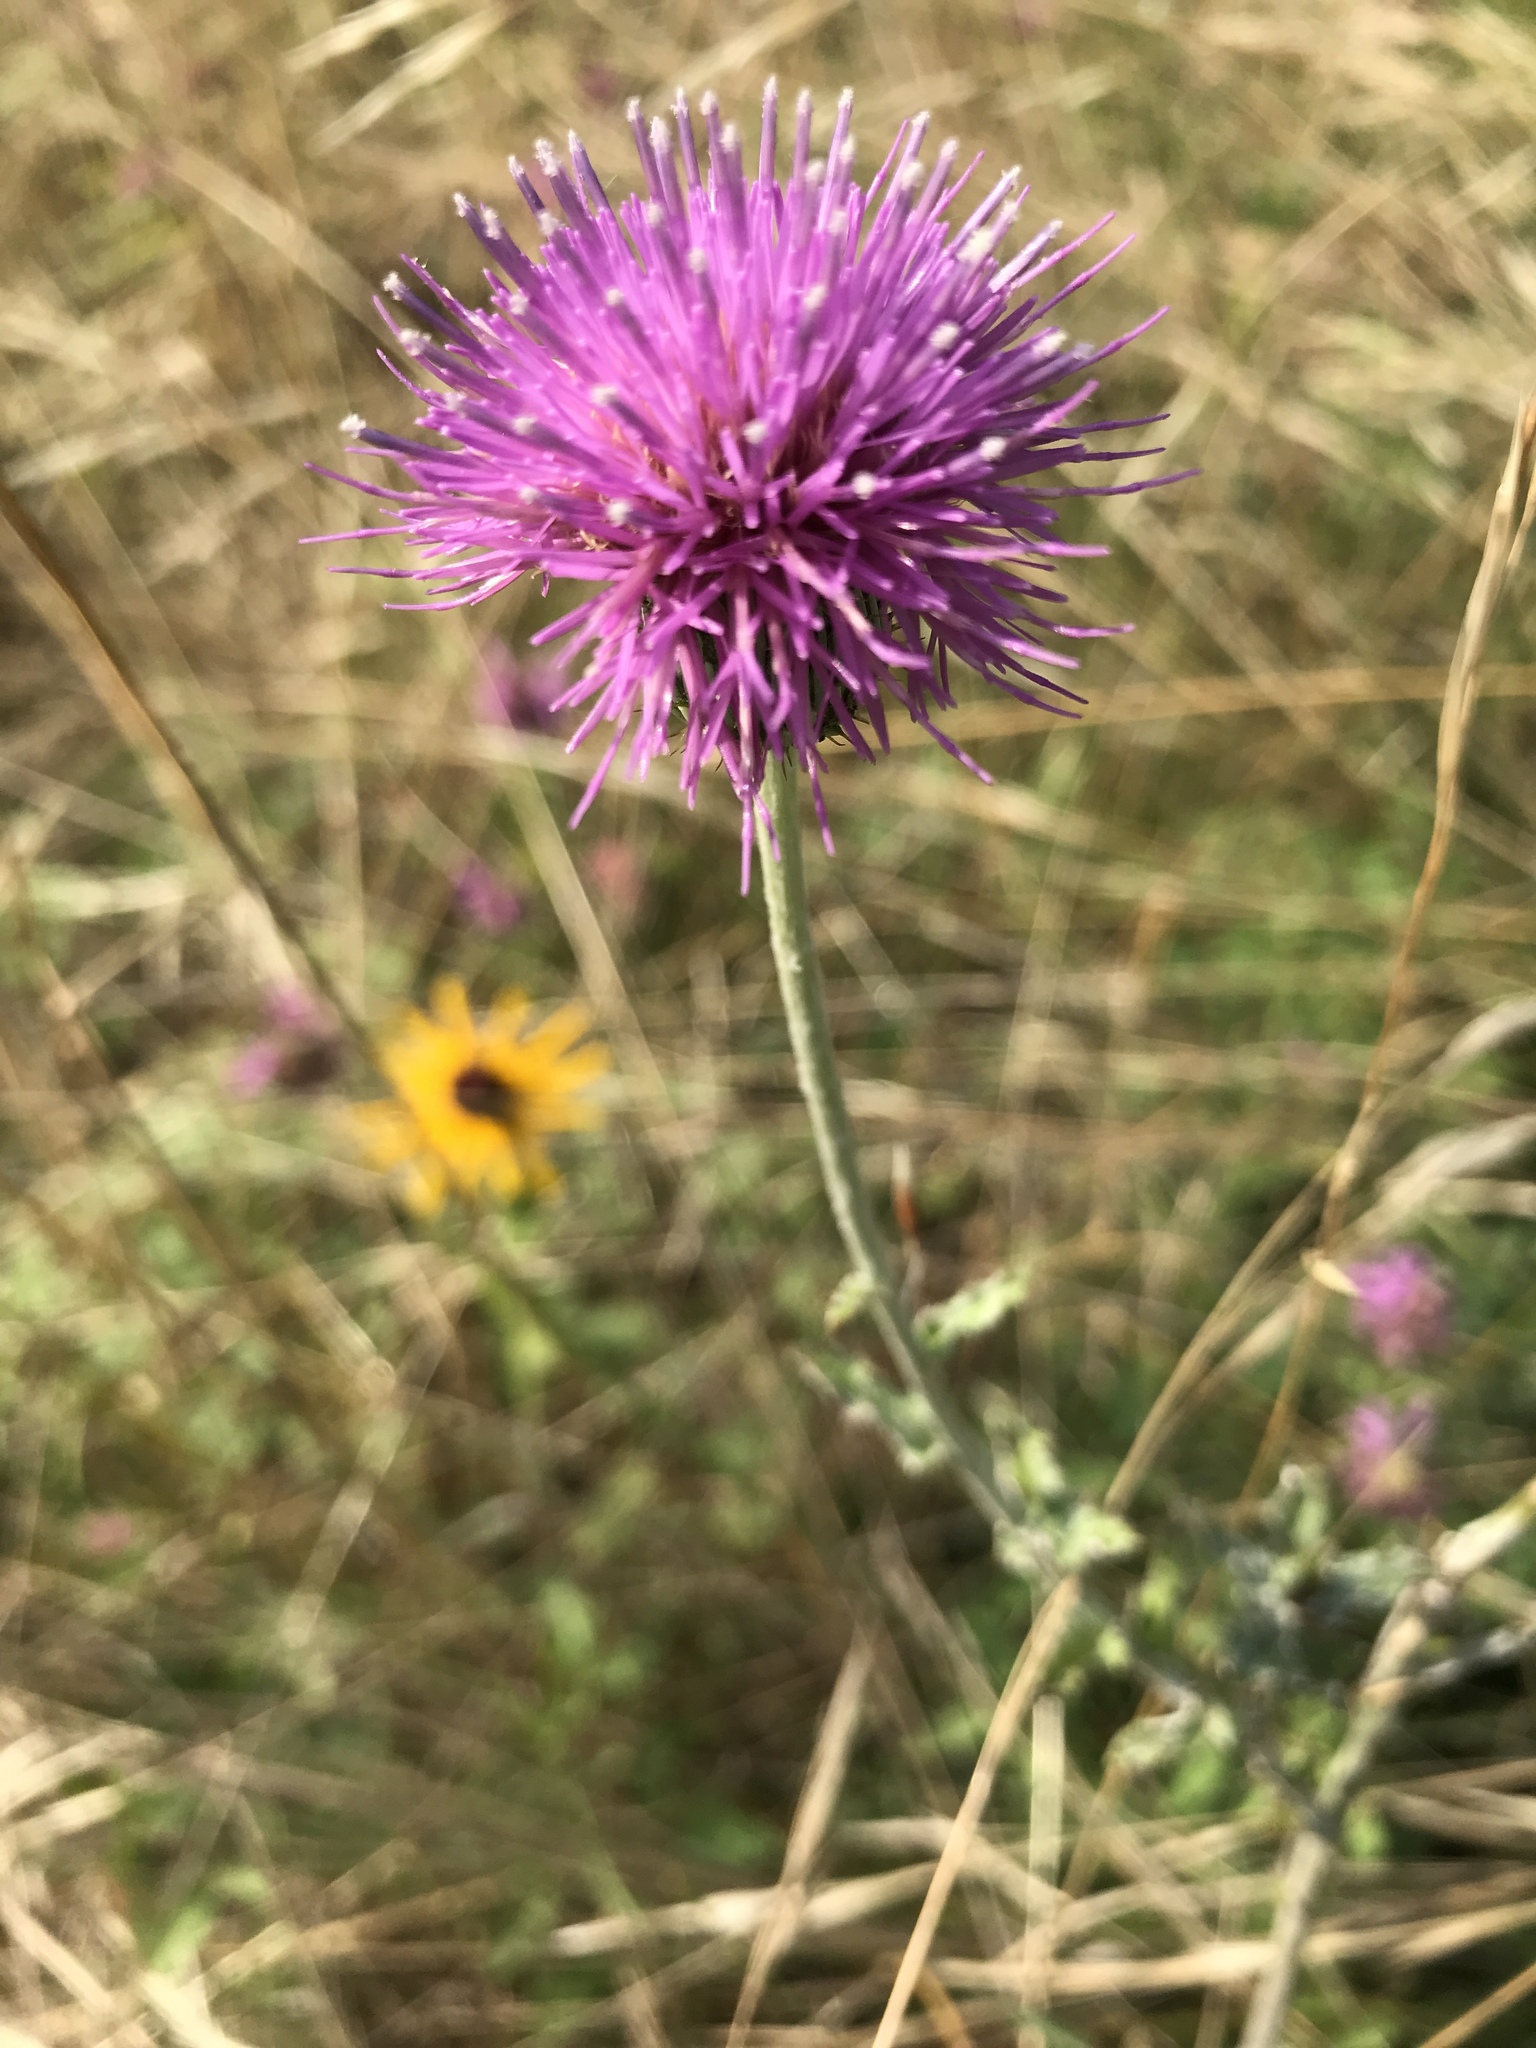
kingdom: Plantae
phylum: Tracheophyta
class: Magnoliopsida
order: Asterales
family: Asteraceae
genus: Cirsium
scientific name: Cirsium texanum
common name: Texas purple thistle
